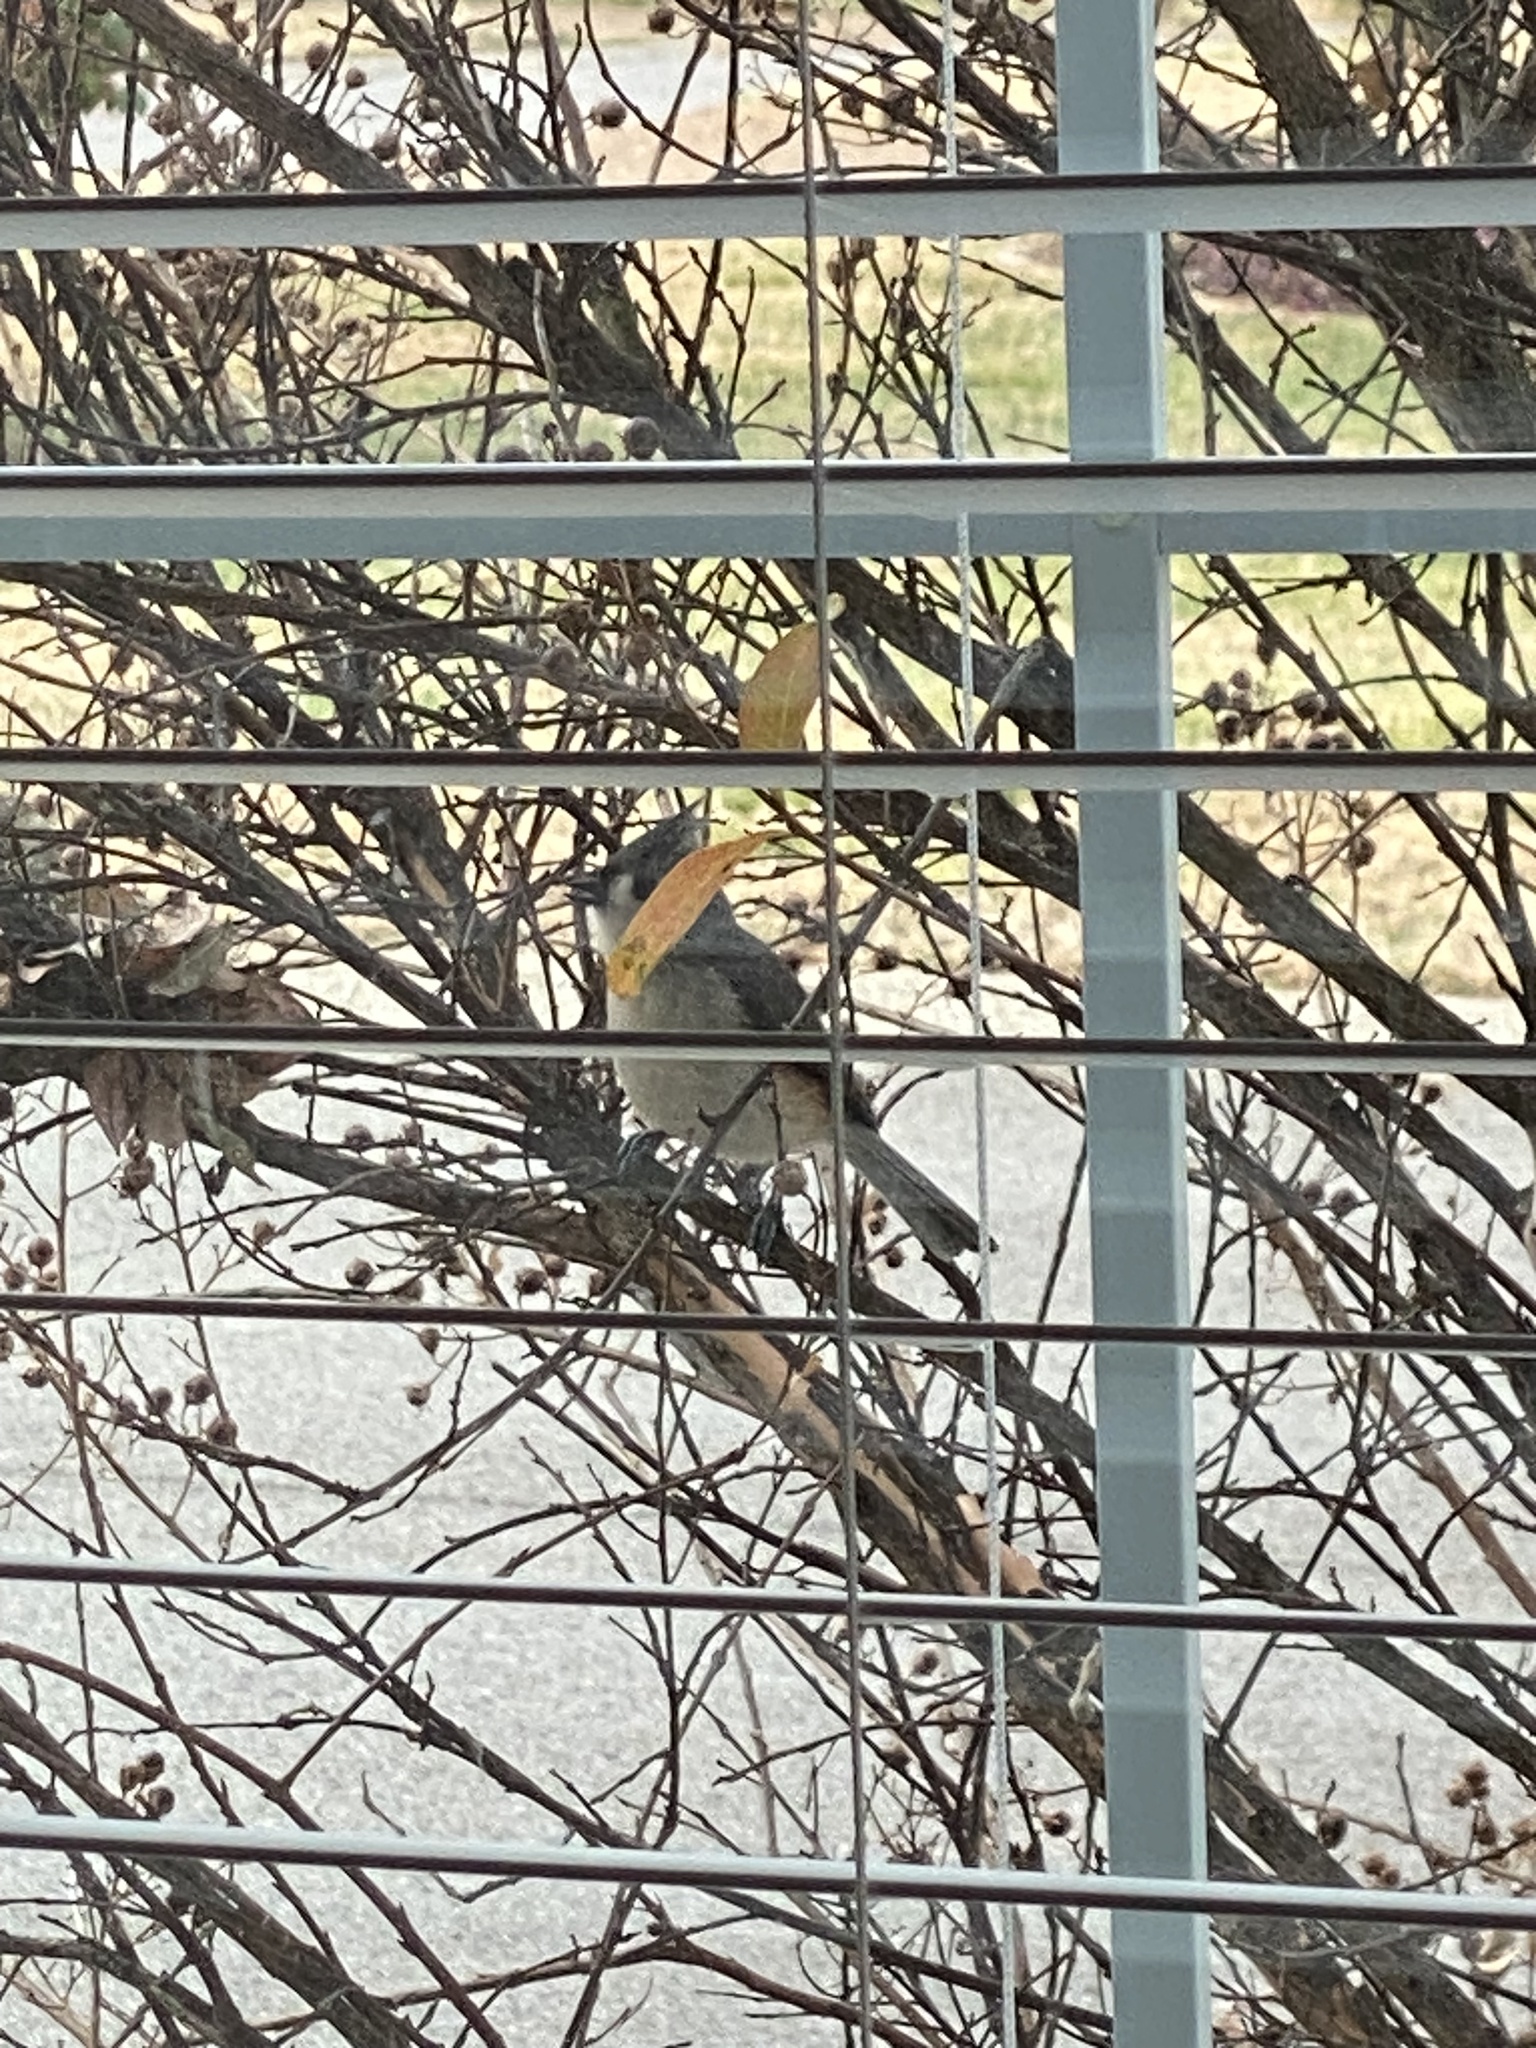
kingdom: Animalia
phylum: Chordata
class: Aves
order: Passeriformes
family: Paridae
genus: Baeolophus
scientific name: Baeolophus bicolor
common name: Tufted titmouse
